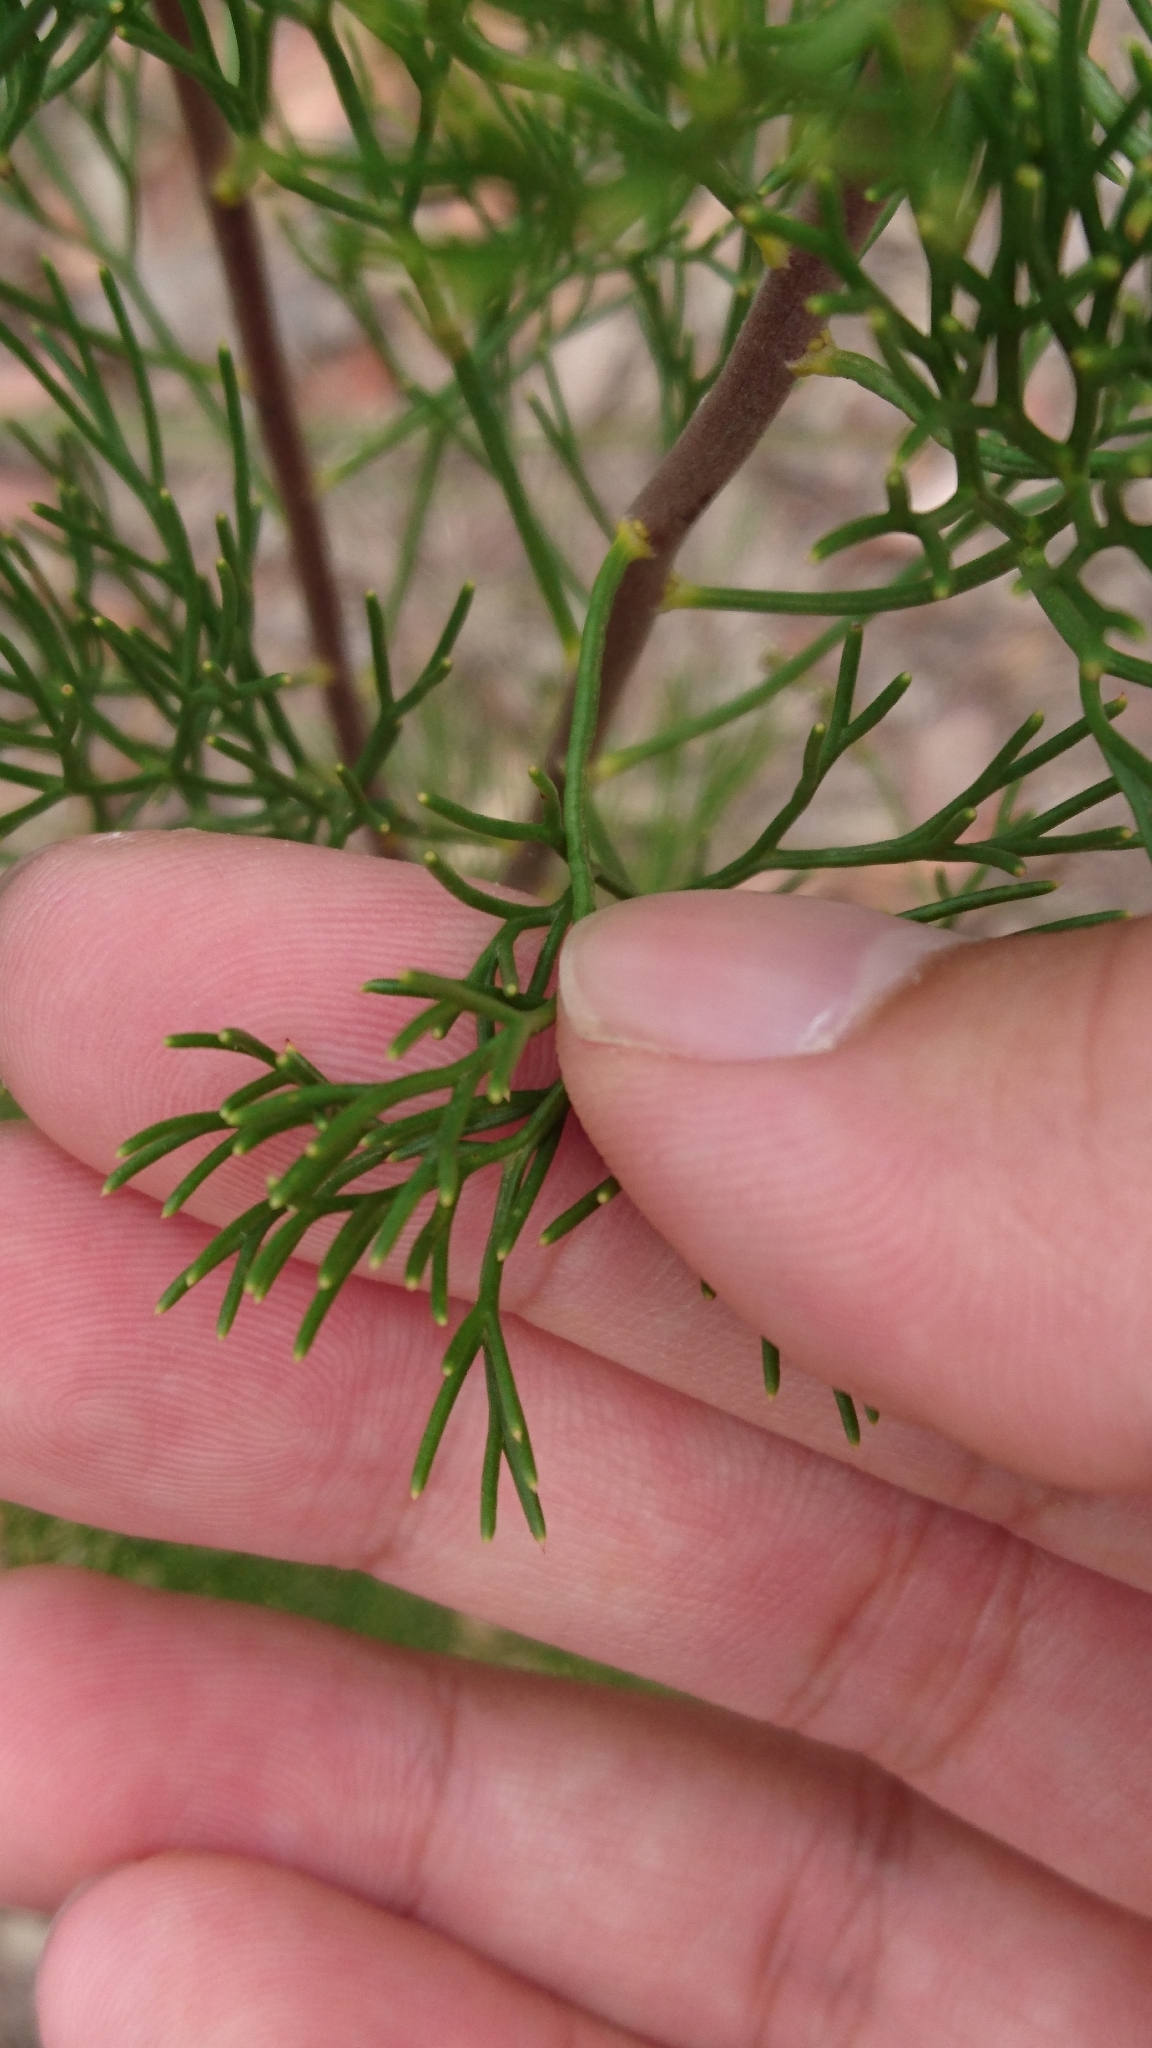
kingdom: Plantae
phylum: Tracheophyta
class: Magnoliopsida
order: Proteales
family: Proteaceae
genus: Isopogon
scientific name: Isopogon anethifolius
